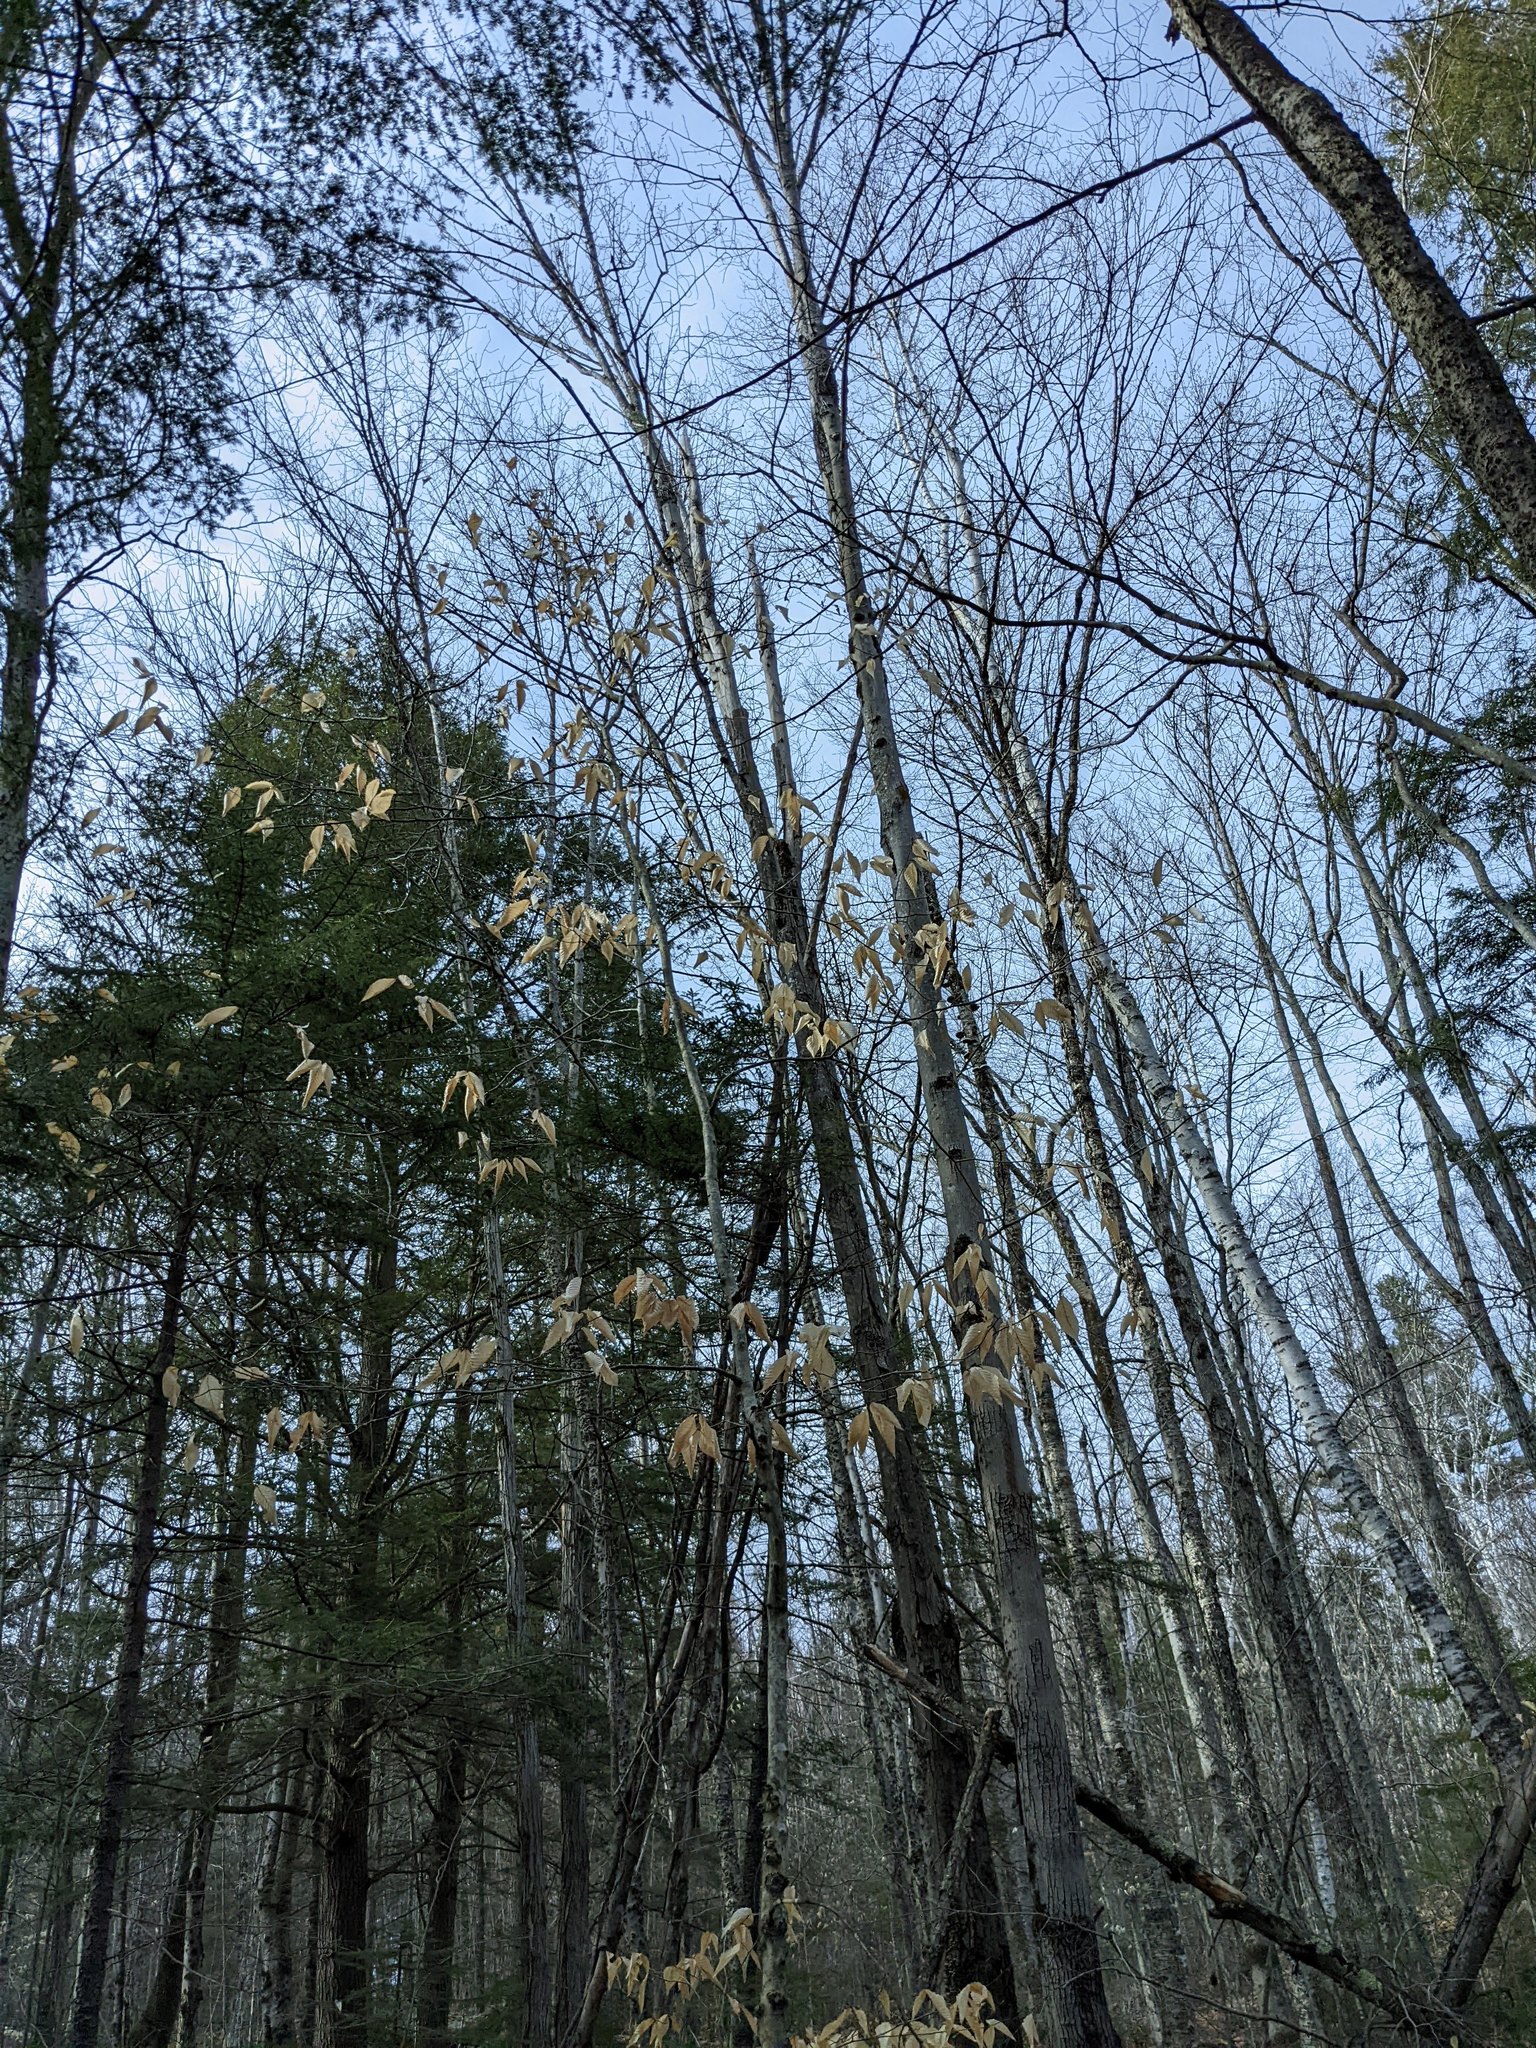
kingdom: Plantae
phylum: Tracheophyta
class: Magnoliopsida
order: Fagales
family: Fagaceae
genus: Fagus
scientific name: Fagus grandifolia
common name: American beech
